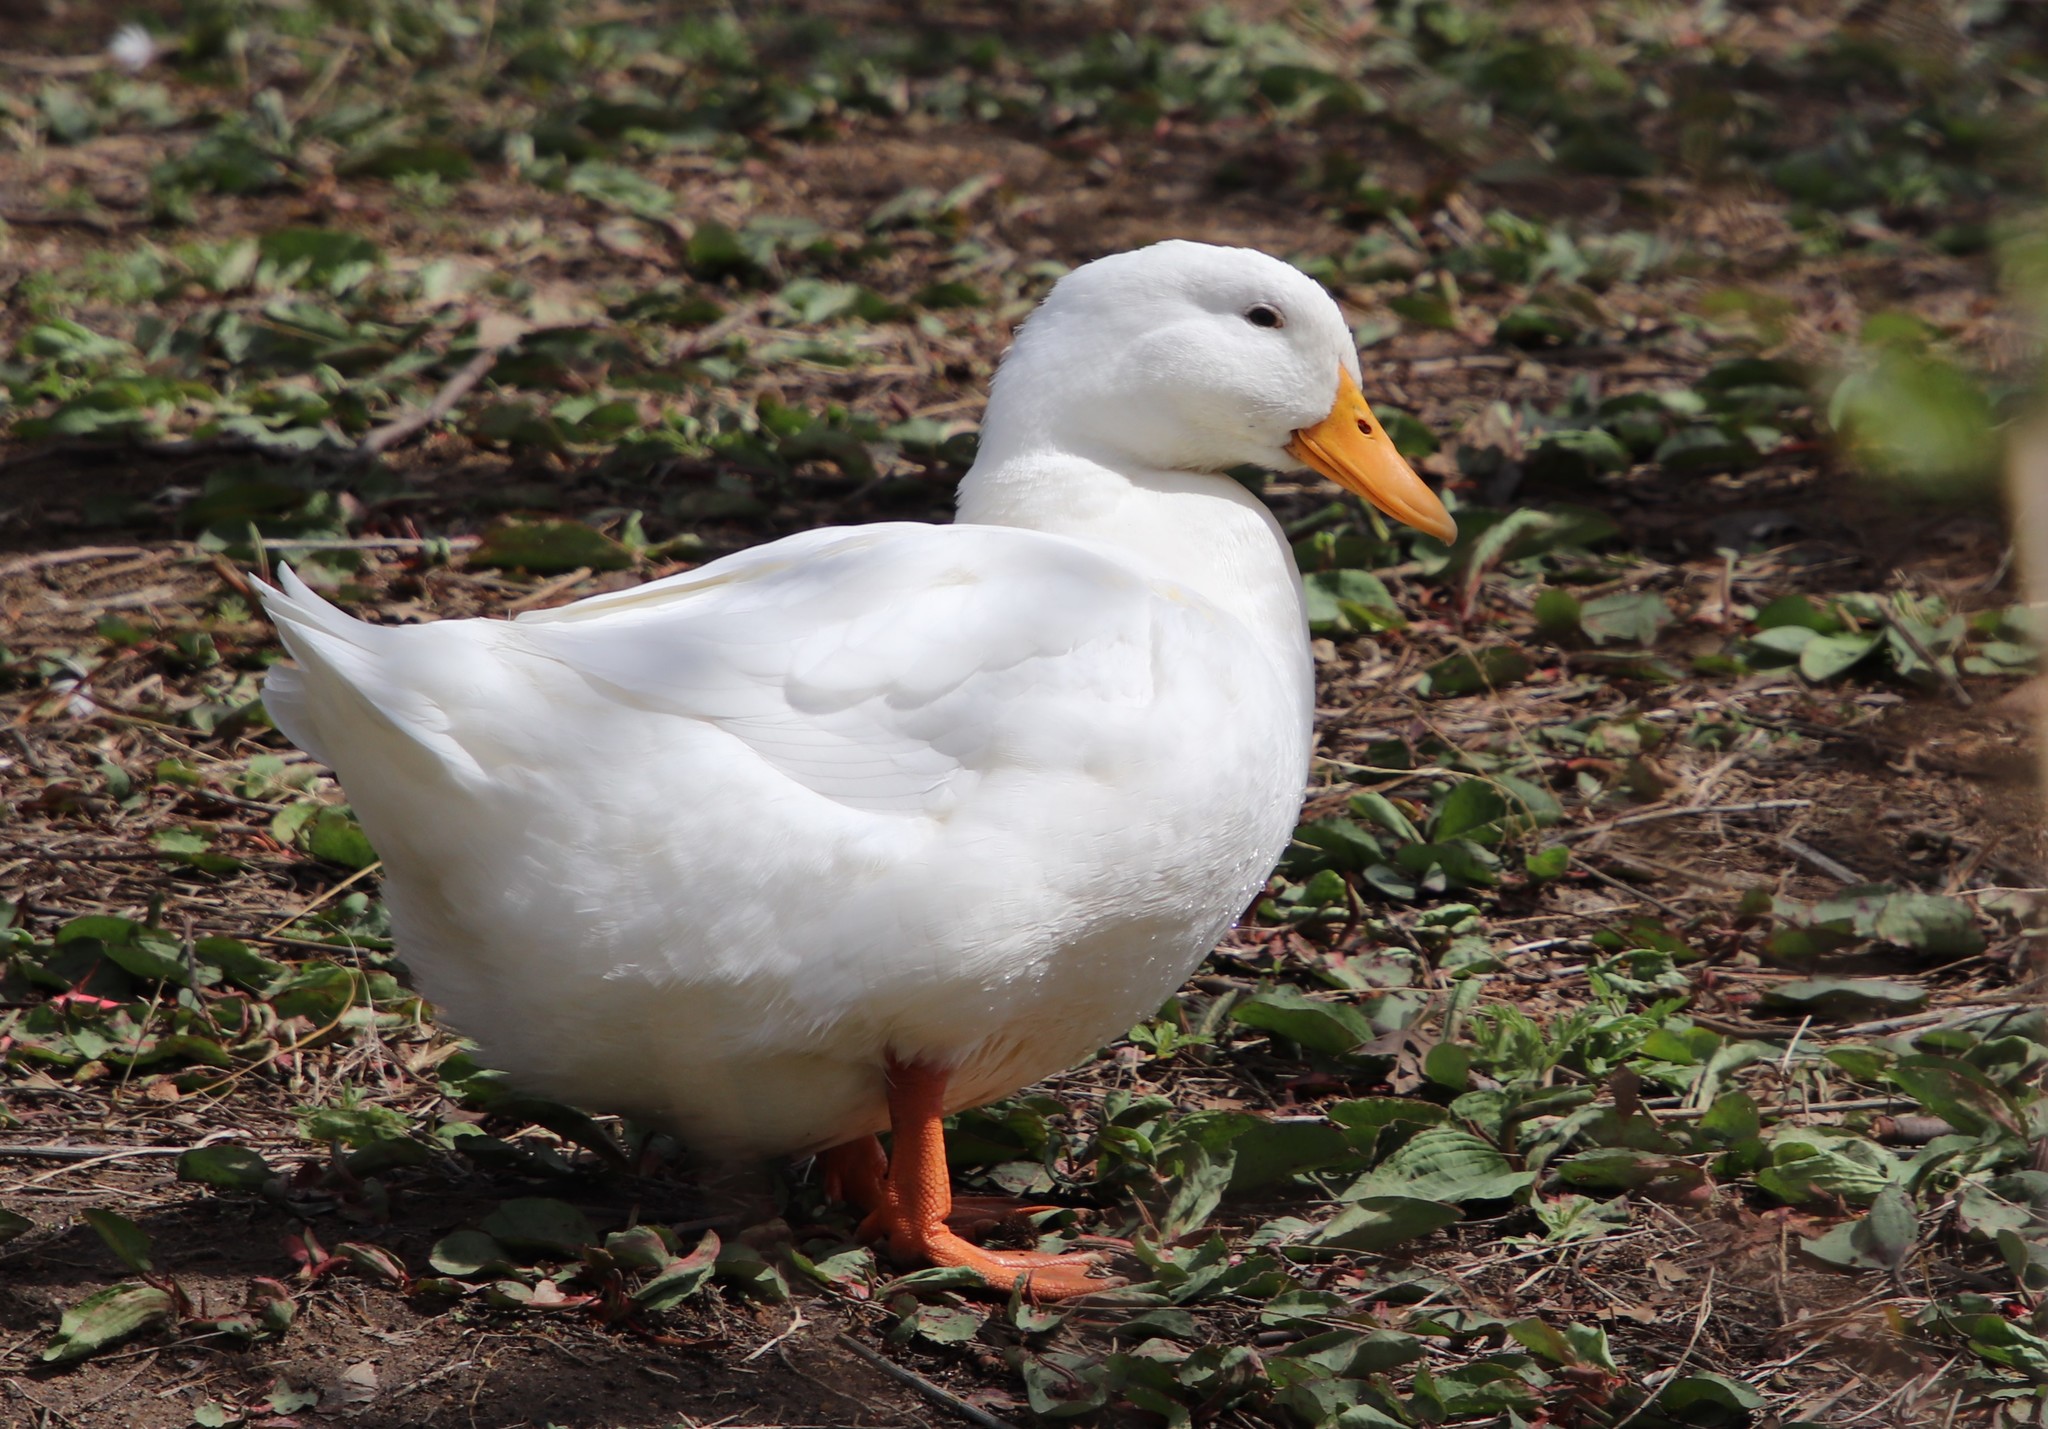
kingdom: Animalia
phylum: Chordata
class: Aves
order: Anseriformes
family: Anatidae
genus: Anas
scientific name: Anas platyrhynchos
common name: Mallard
